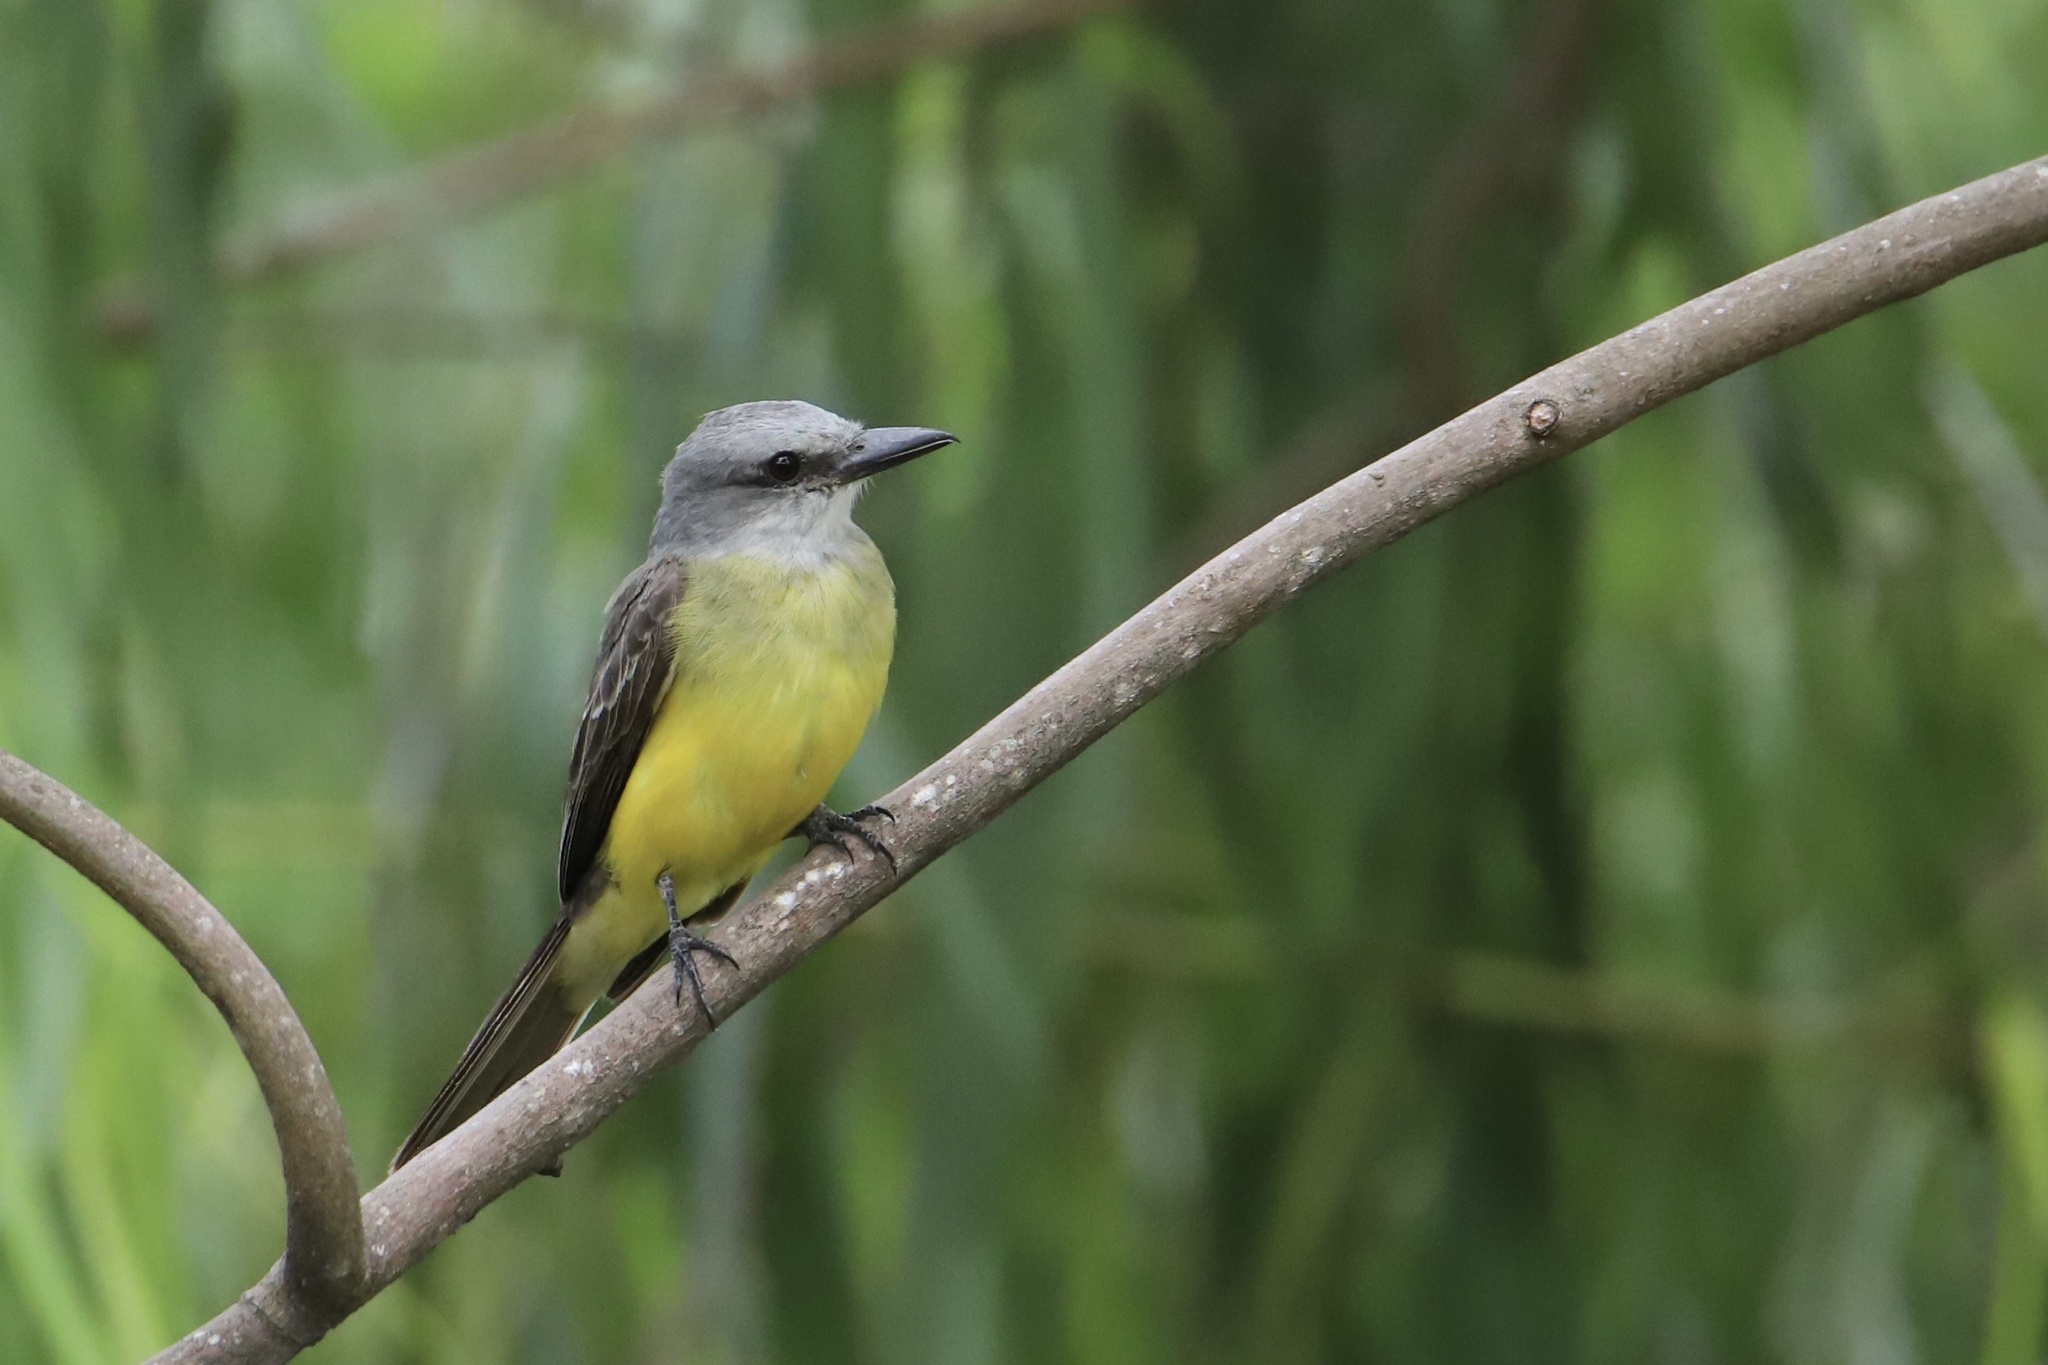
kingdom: Animalia
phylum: Chordata
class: Aves
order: Passeriformes
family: Tyrannidae
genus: Tyrannus
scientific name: Tyrannus melancholicus
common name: Tropical kingbird
